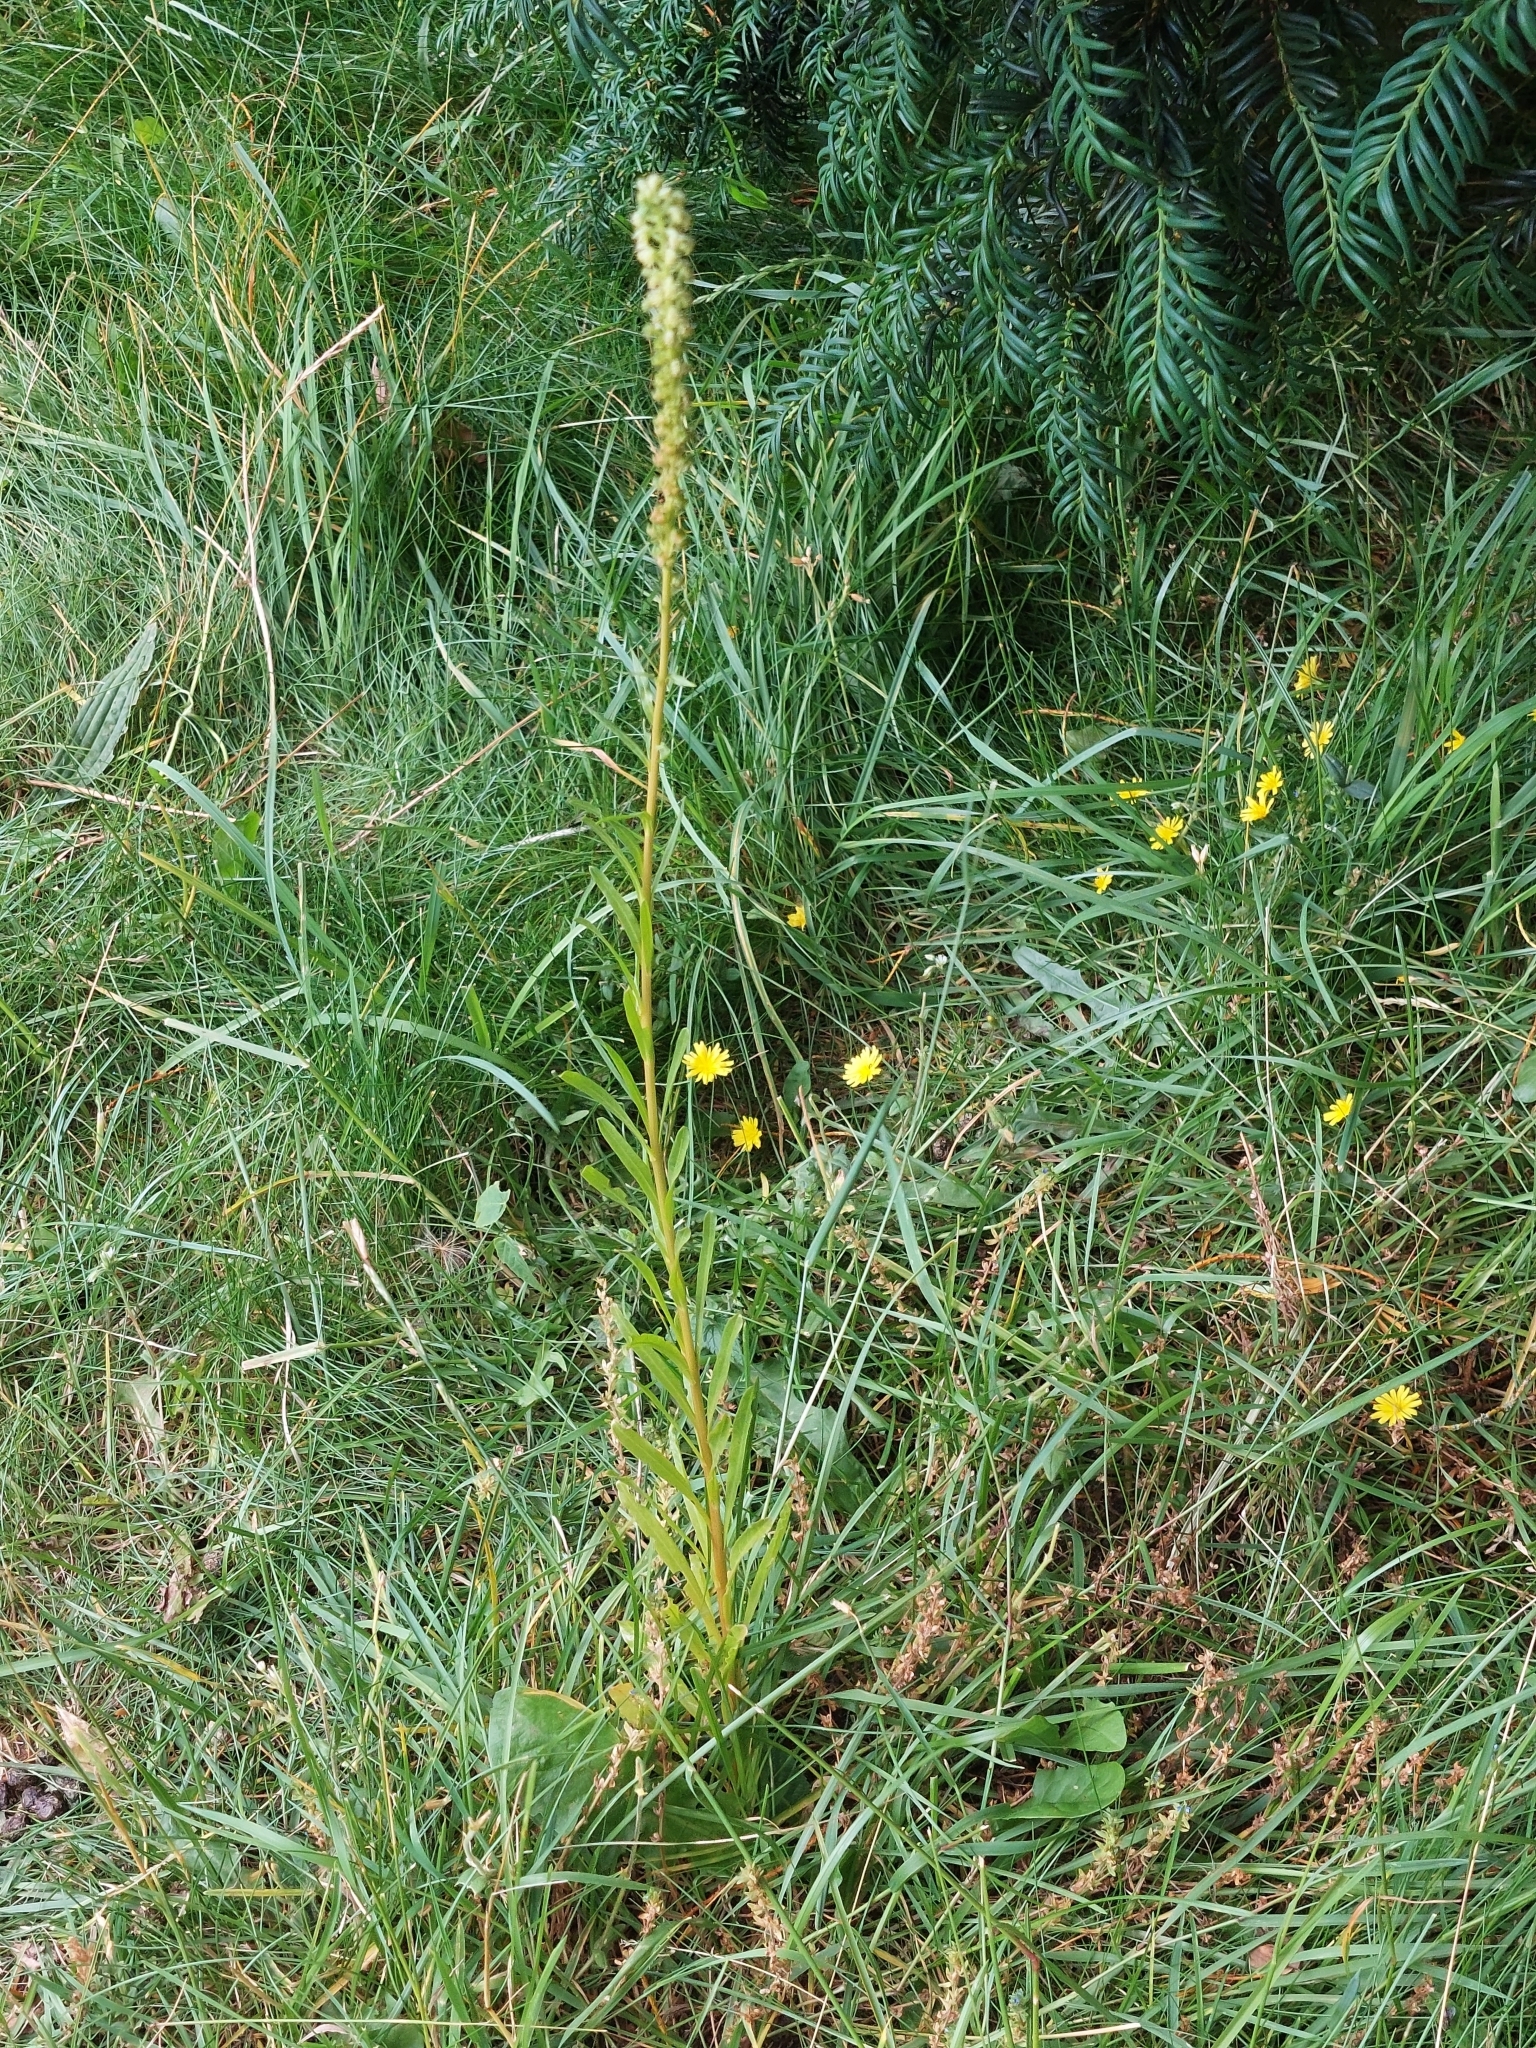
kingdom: Plantae
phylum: Tracheophyta
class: Magnoliopsida
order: Brassicales
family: Resedaceae
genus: Reseda
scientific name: Reseda luteola
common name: Weld
